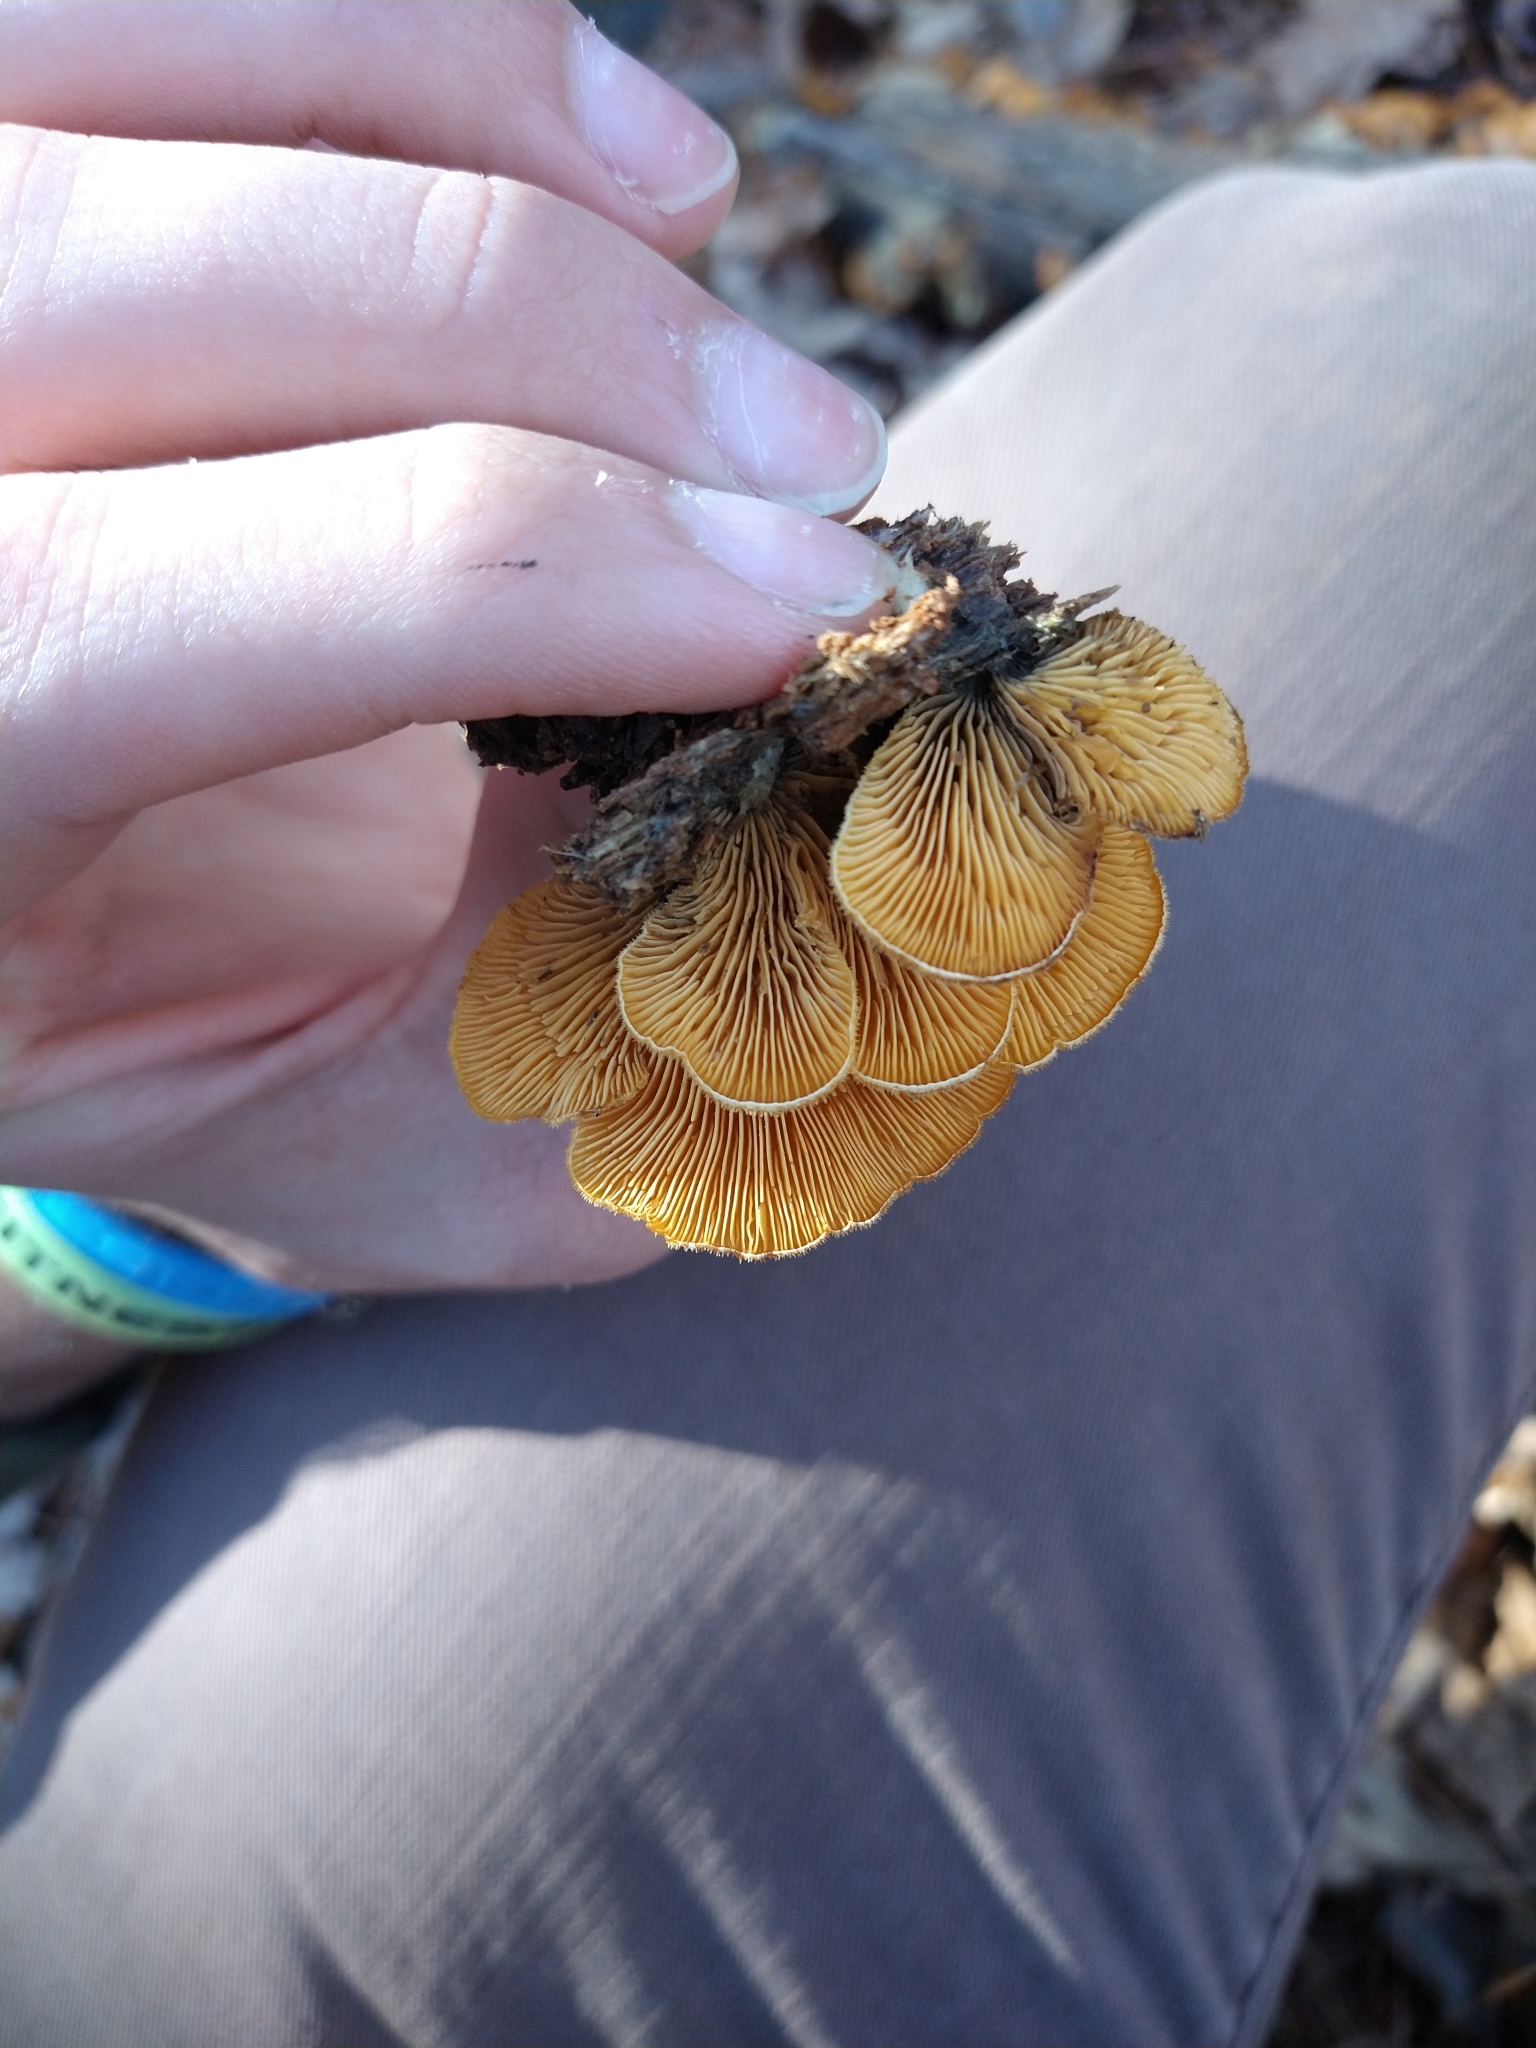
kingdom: Fungi
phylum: Basidiomycota
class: Agaricomycetes
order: Agaricales
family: Phyllotopsidaceae
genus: Phyllotopsis
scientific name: Phyllotopsis nidulans
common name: Orange mock oyster
